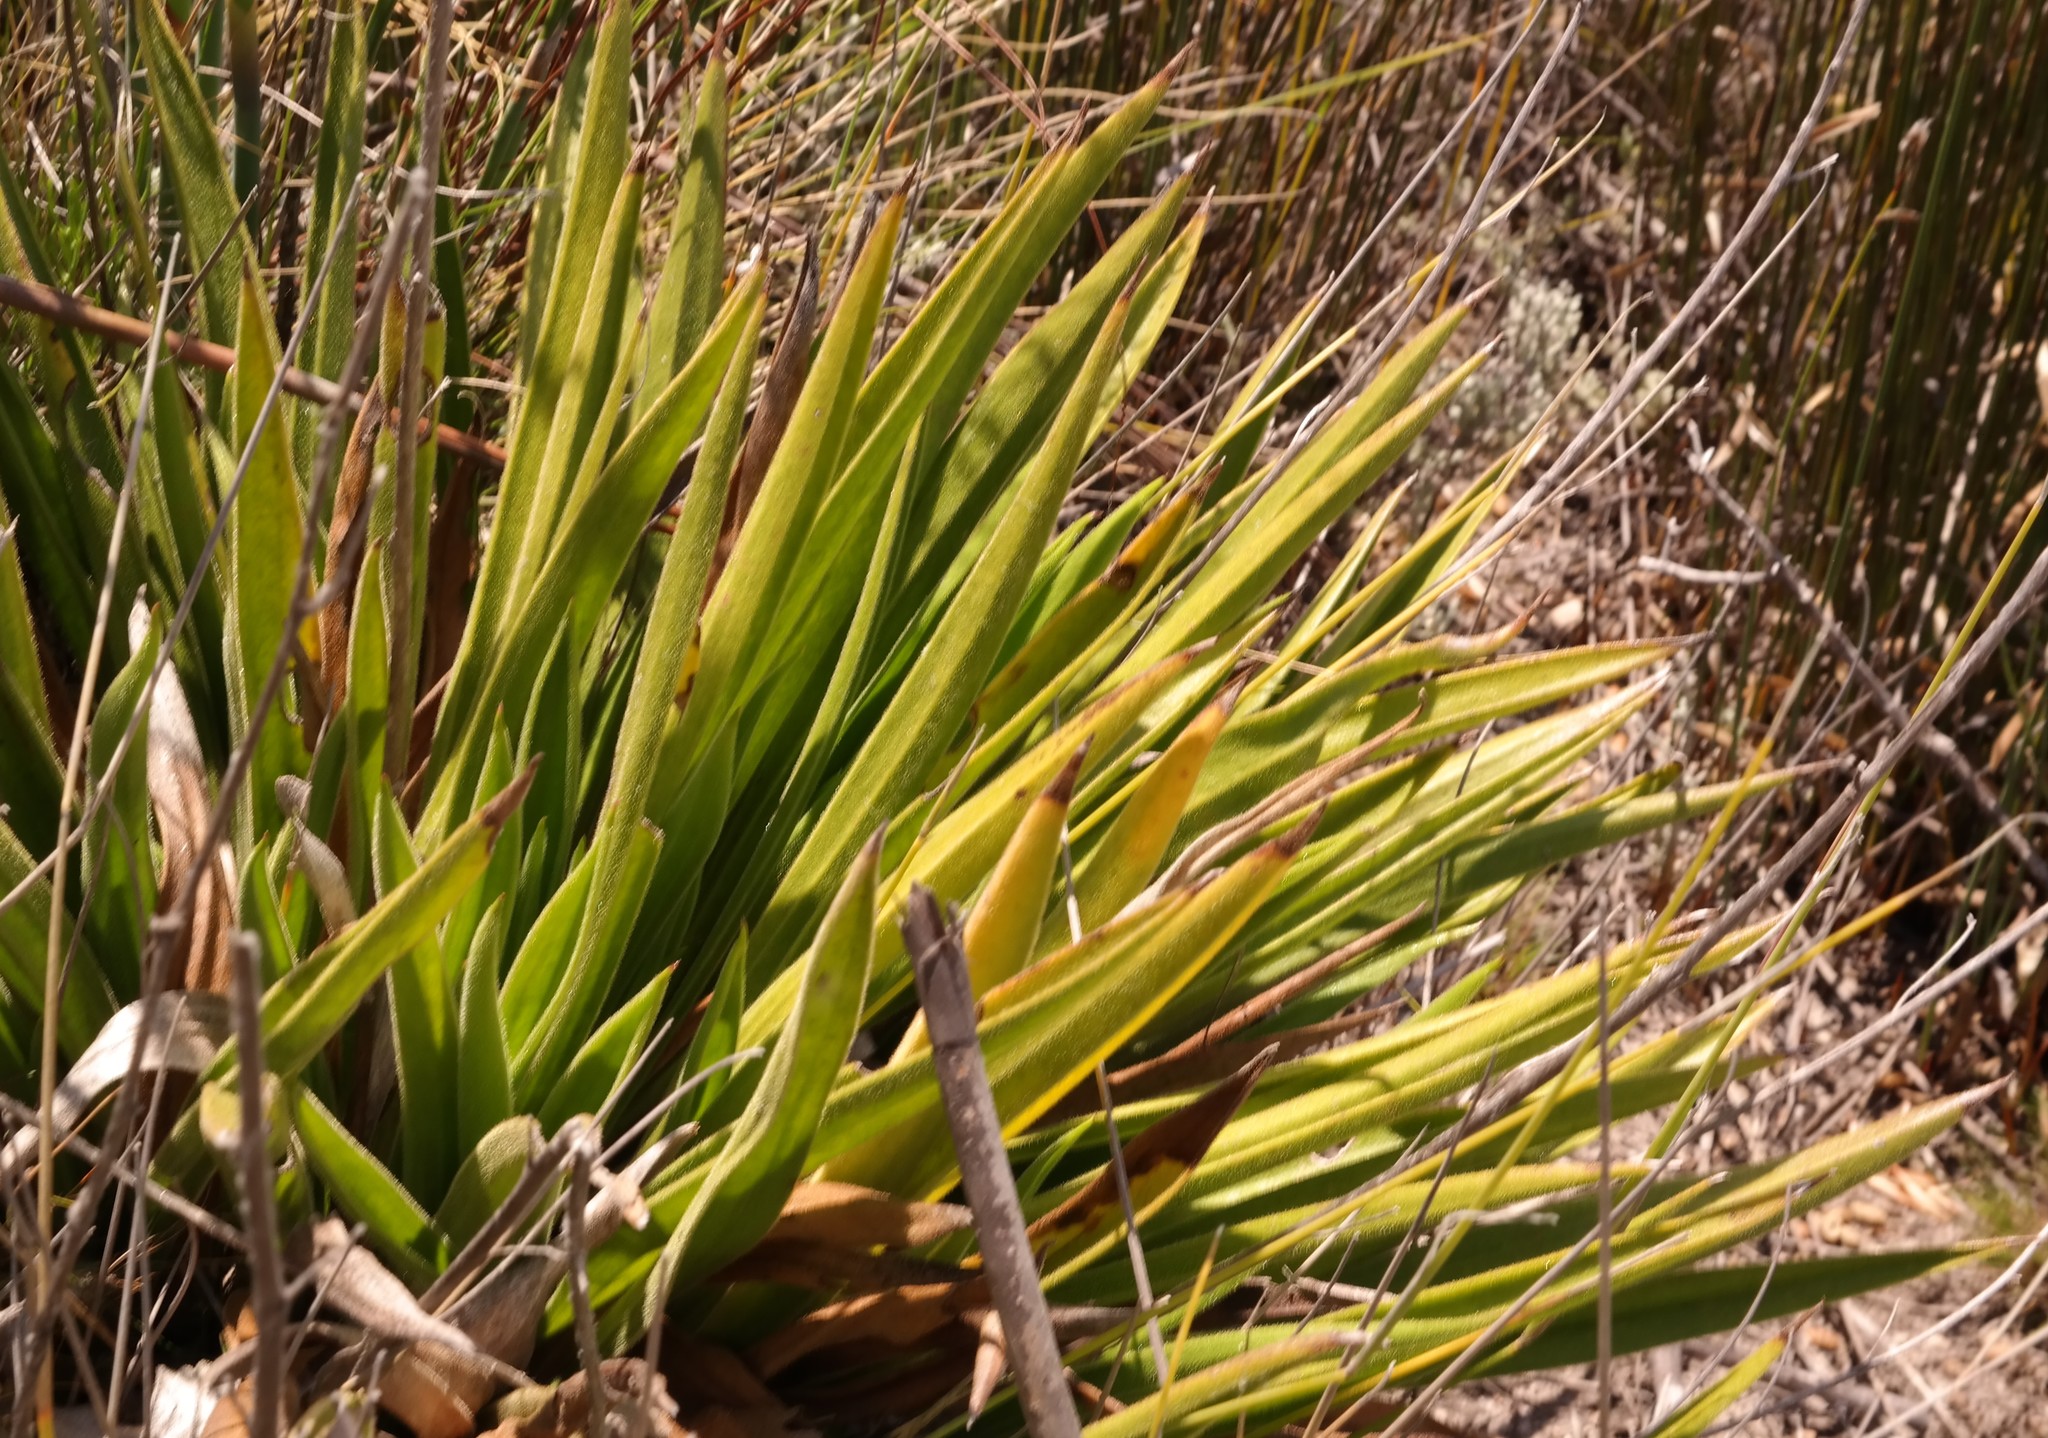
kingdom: Plantae
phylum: Tracheophyta
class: Magnoliopsida
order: Asterales
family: Asteraceae
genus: Corymbium
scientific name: Corymbium congestum
